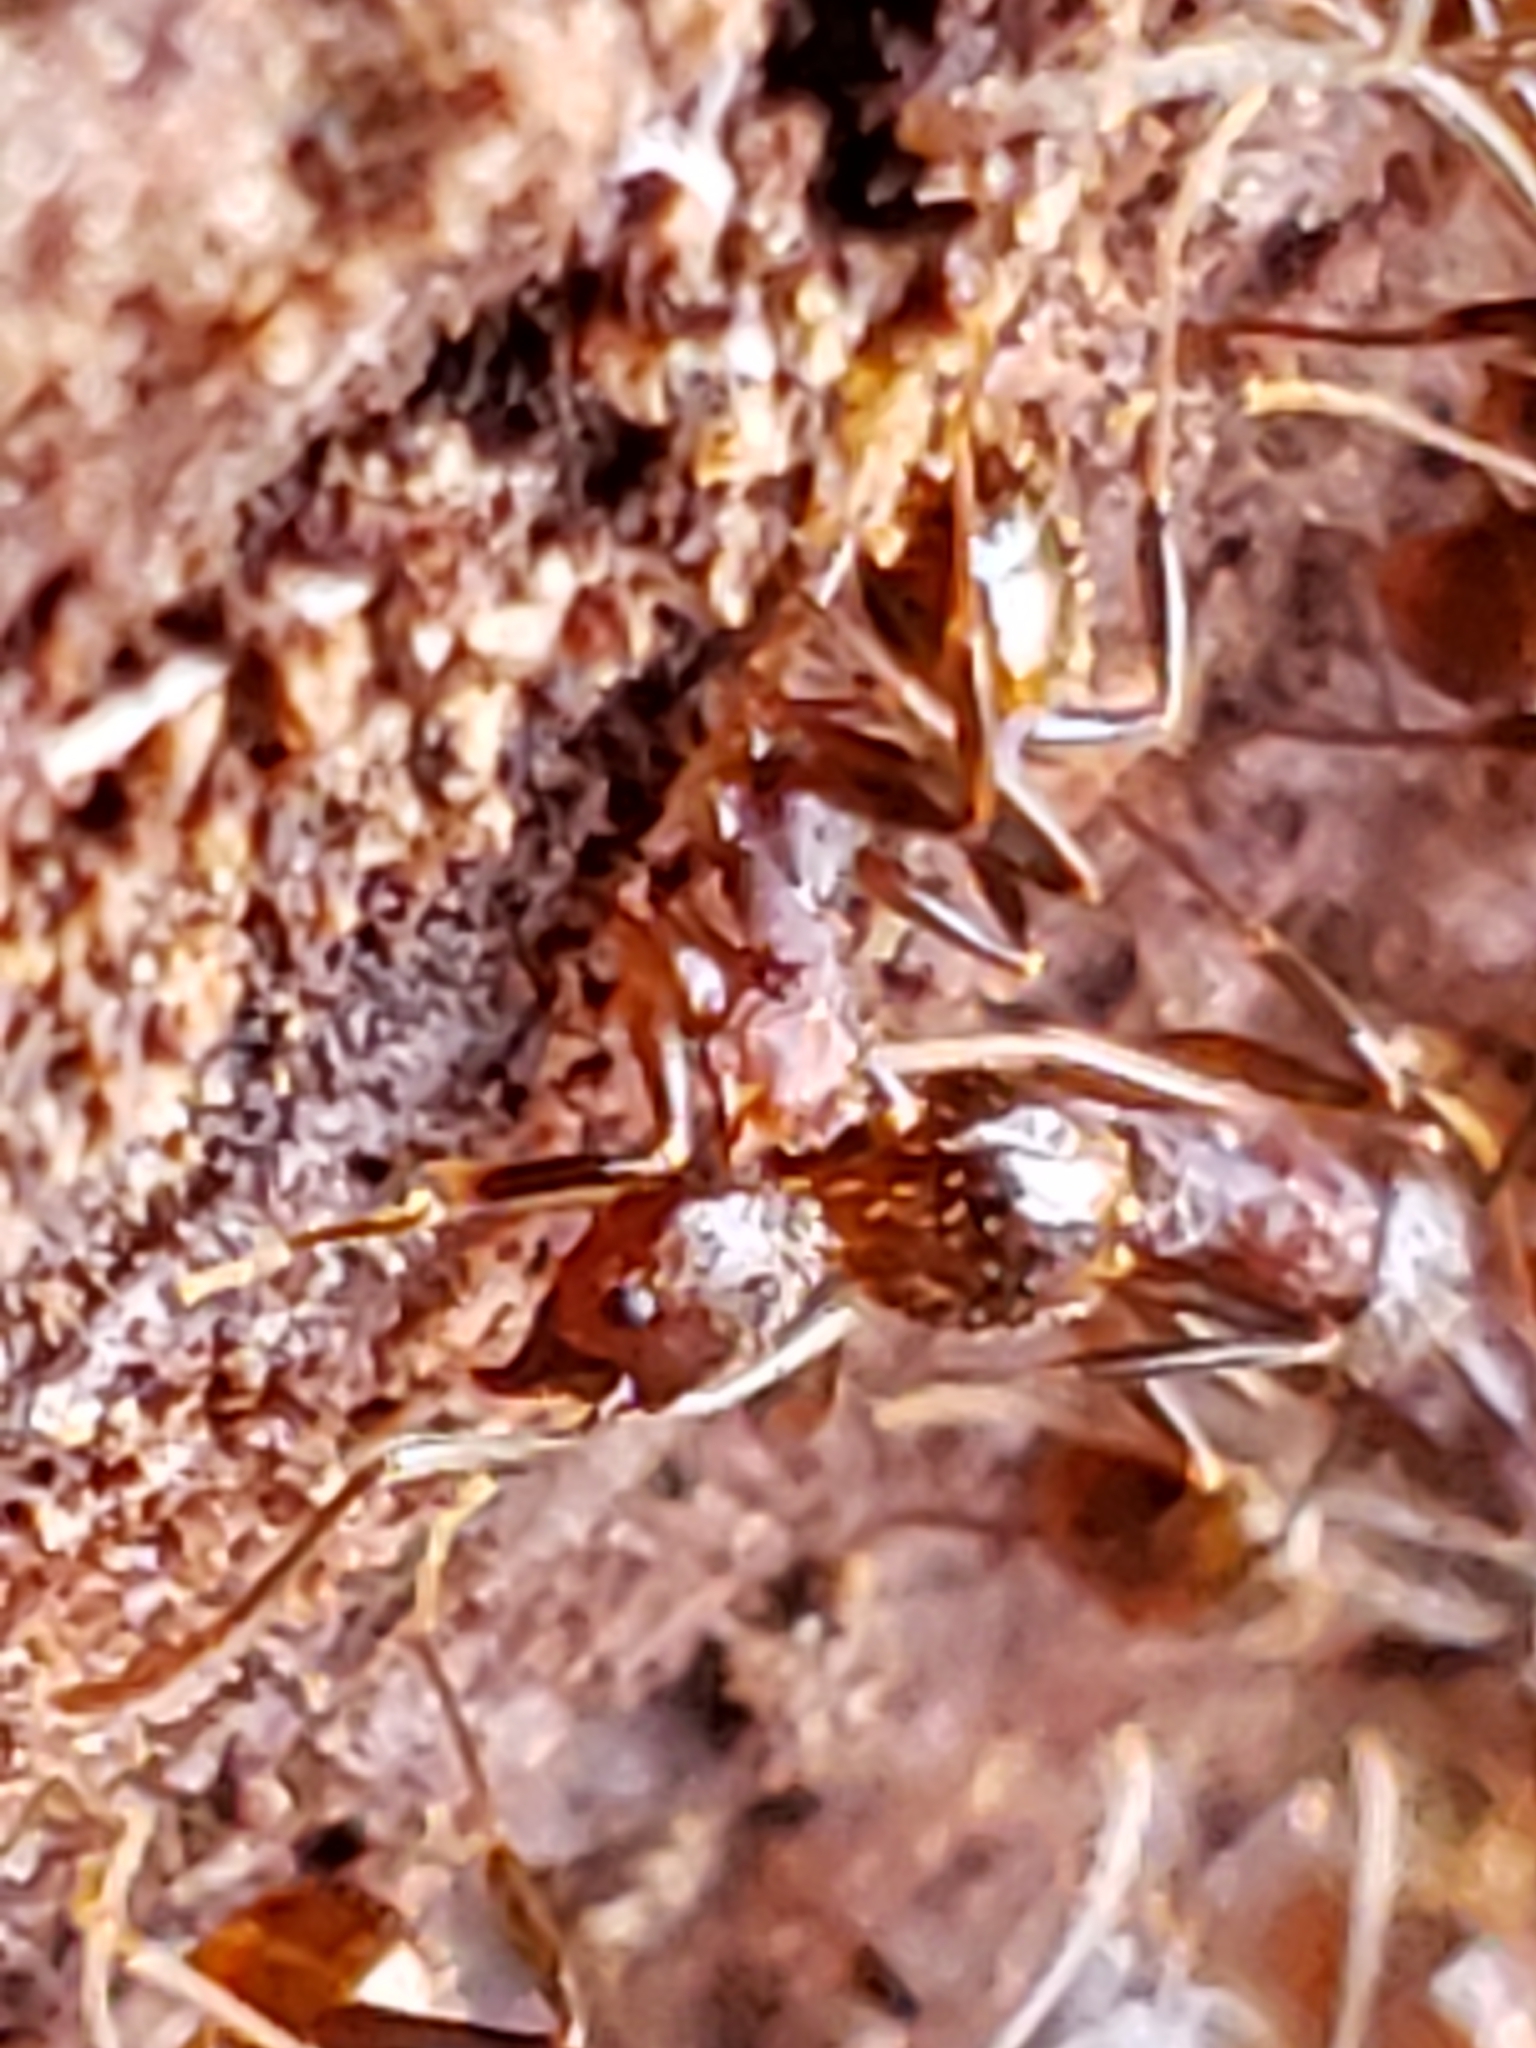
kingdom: Animalia
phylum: Arthropoda
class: Insecta
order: Hymenoptera
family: Formicidae
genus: Aphaenogaster
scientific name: Aphaenogaster fulva
